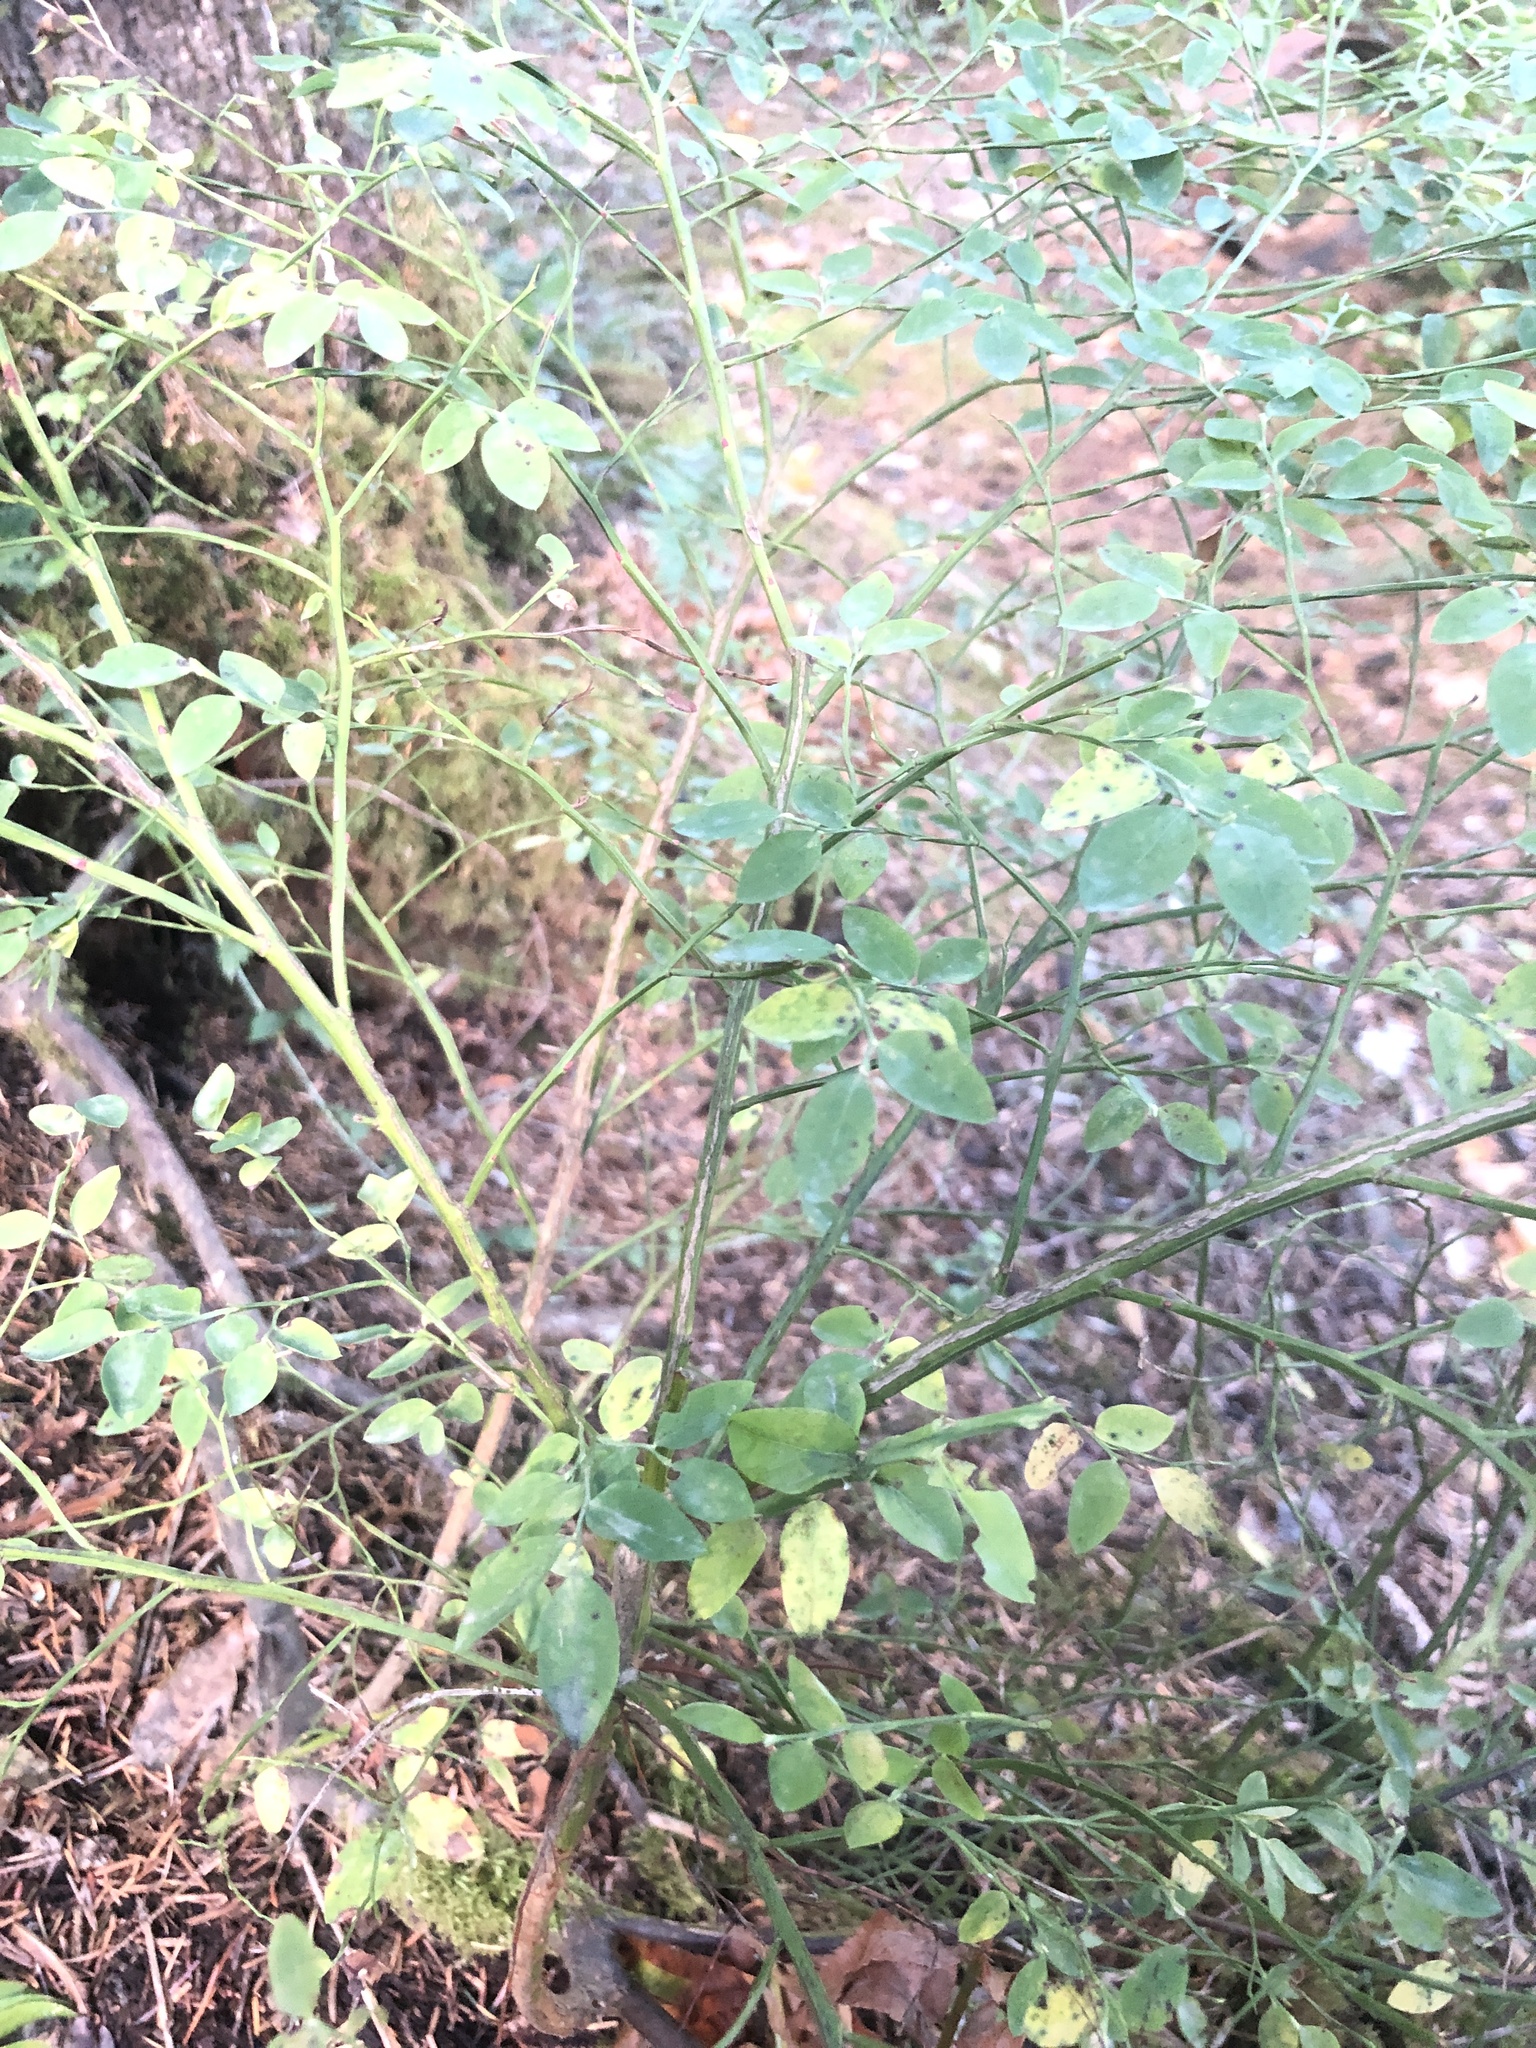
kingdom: Plantae
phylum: Tracheophyta
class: Magnoliopsida
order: Ericales
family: Ericaceae
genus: Vaccinium
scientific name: Vaccinium parvifolium
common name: Red-huckleberry
